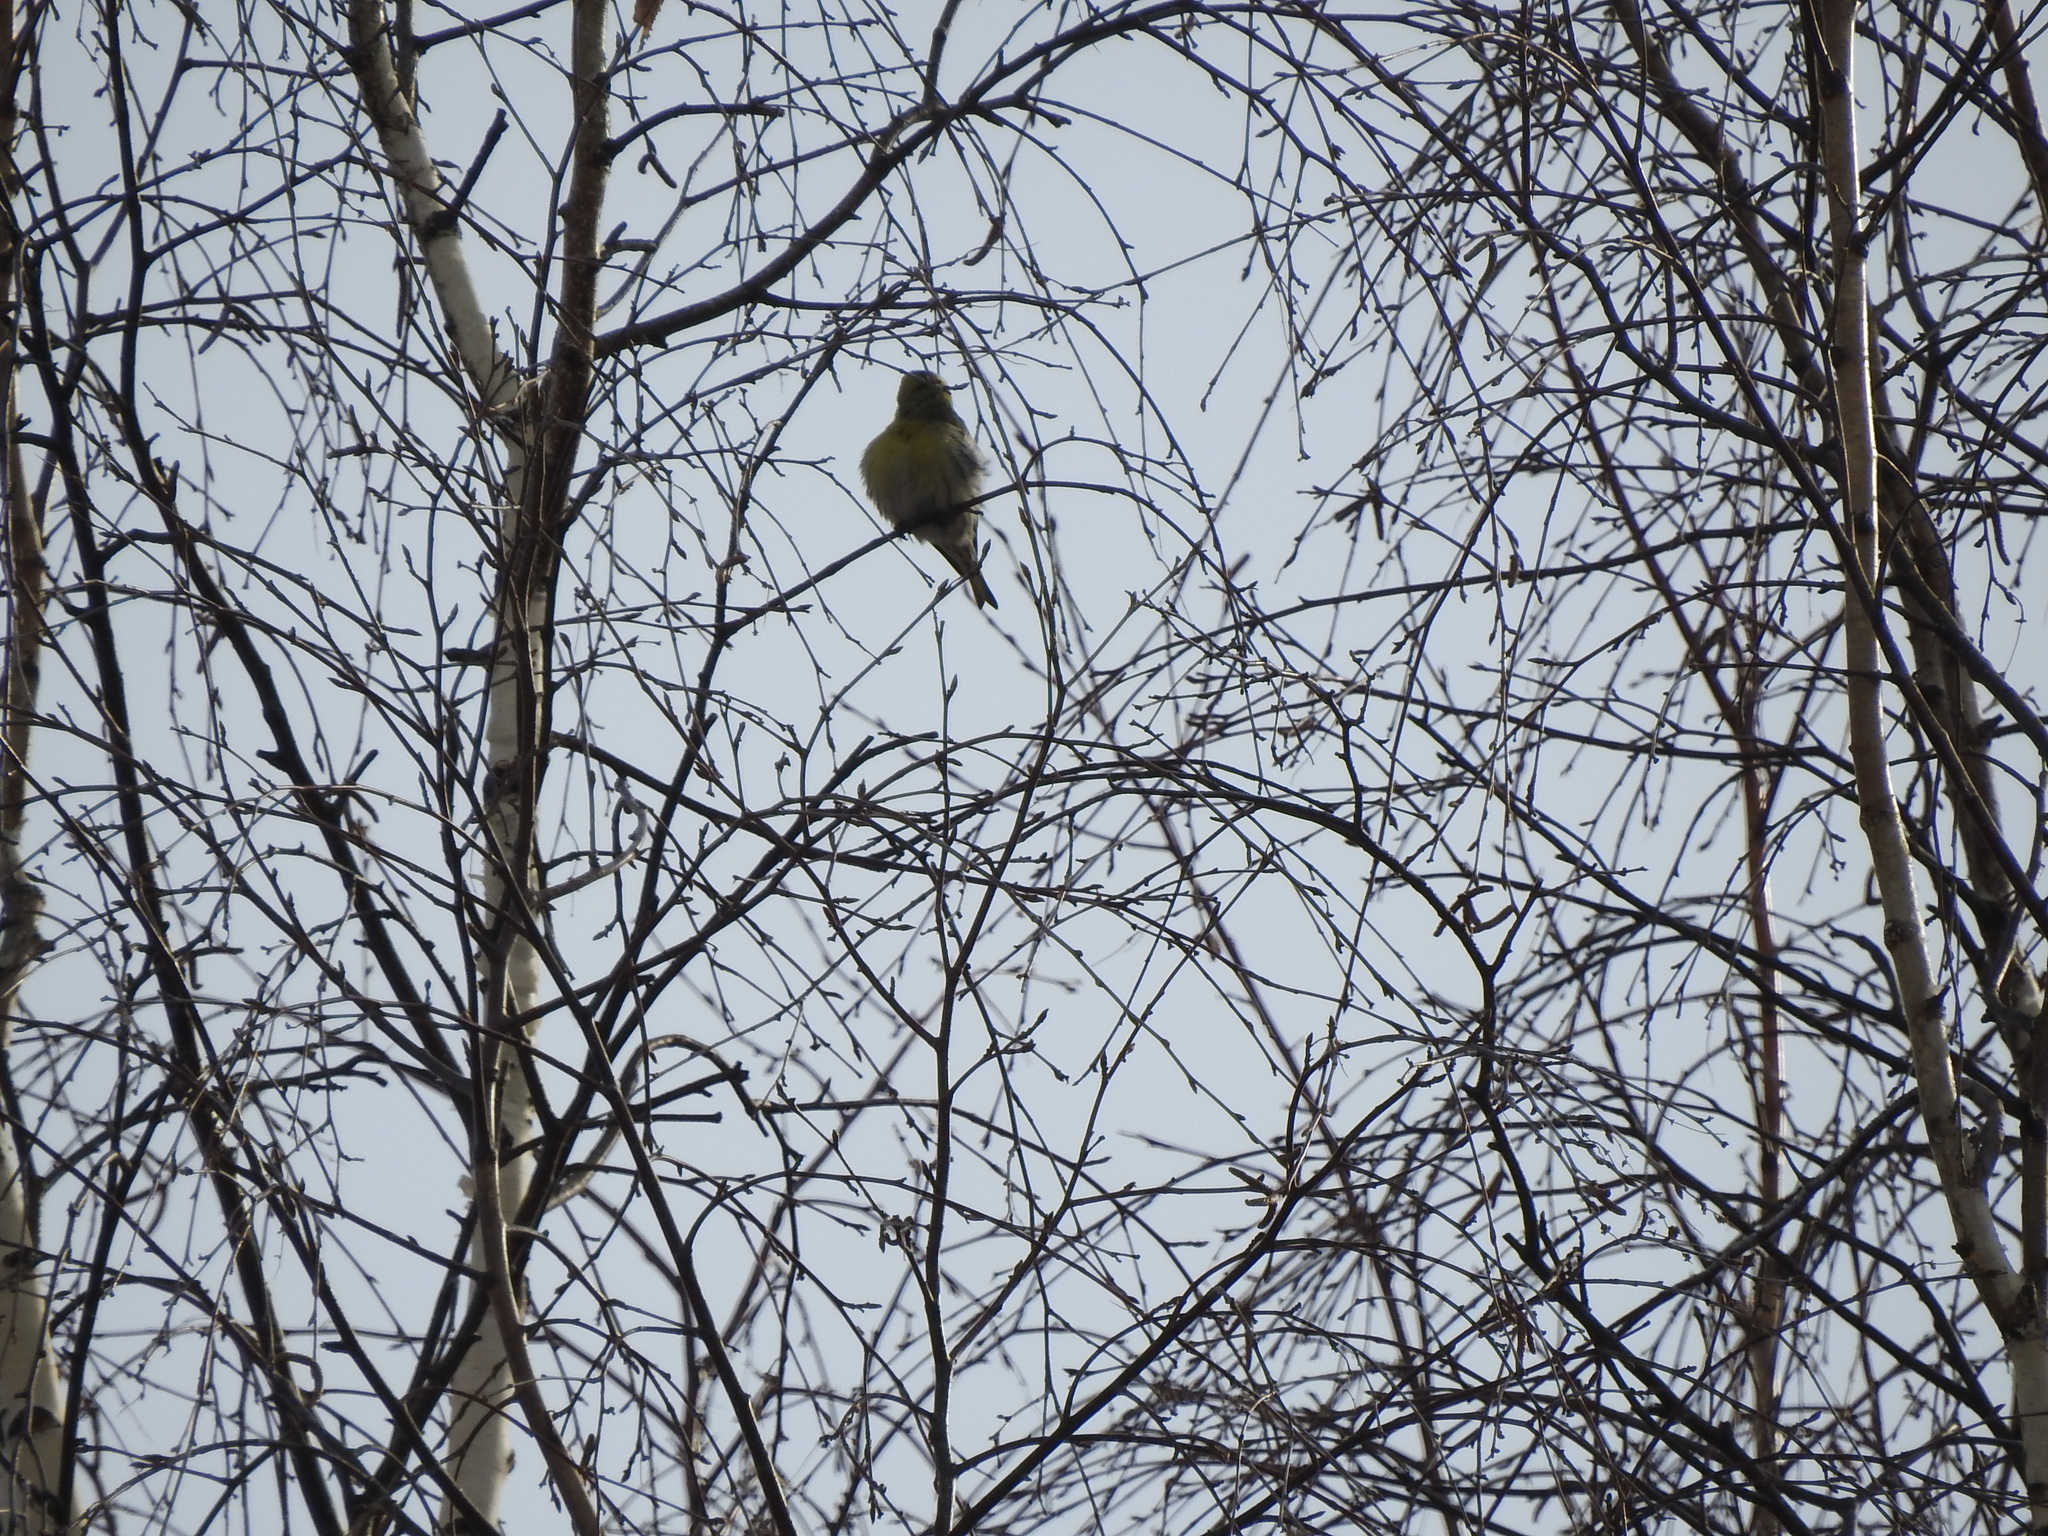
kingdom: Animalia
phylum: Chordata
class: Aves
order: Passeriformes
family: Fringillidae
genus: Spinus
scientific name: Spinus spinus
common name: Eurasian siskin
